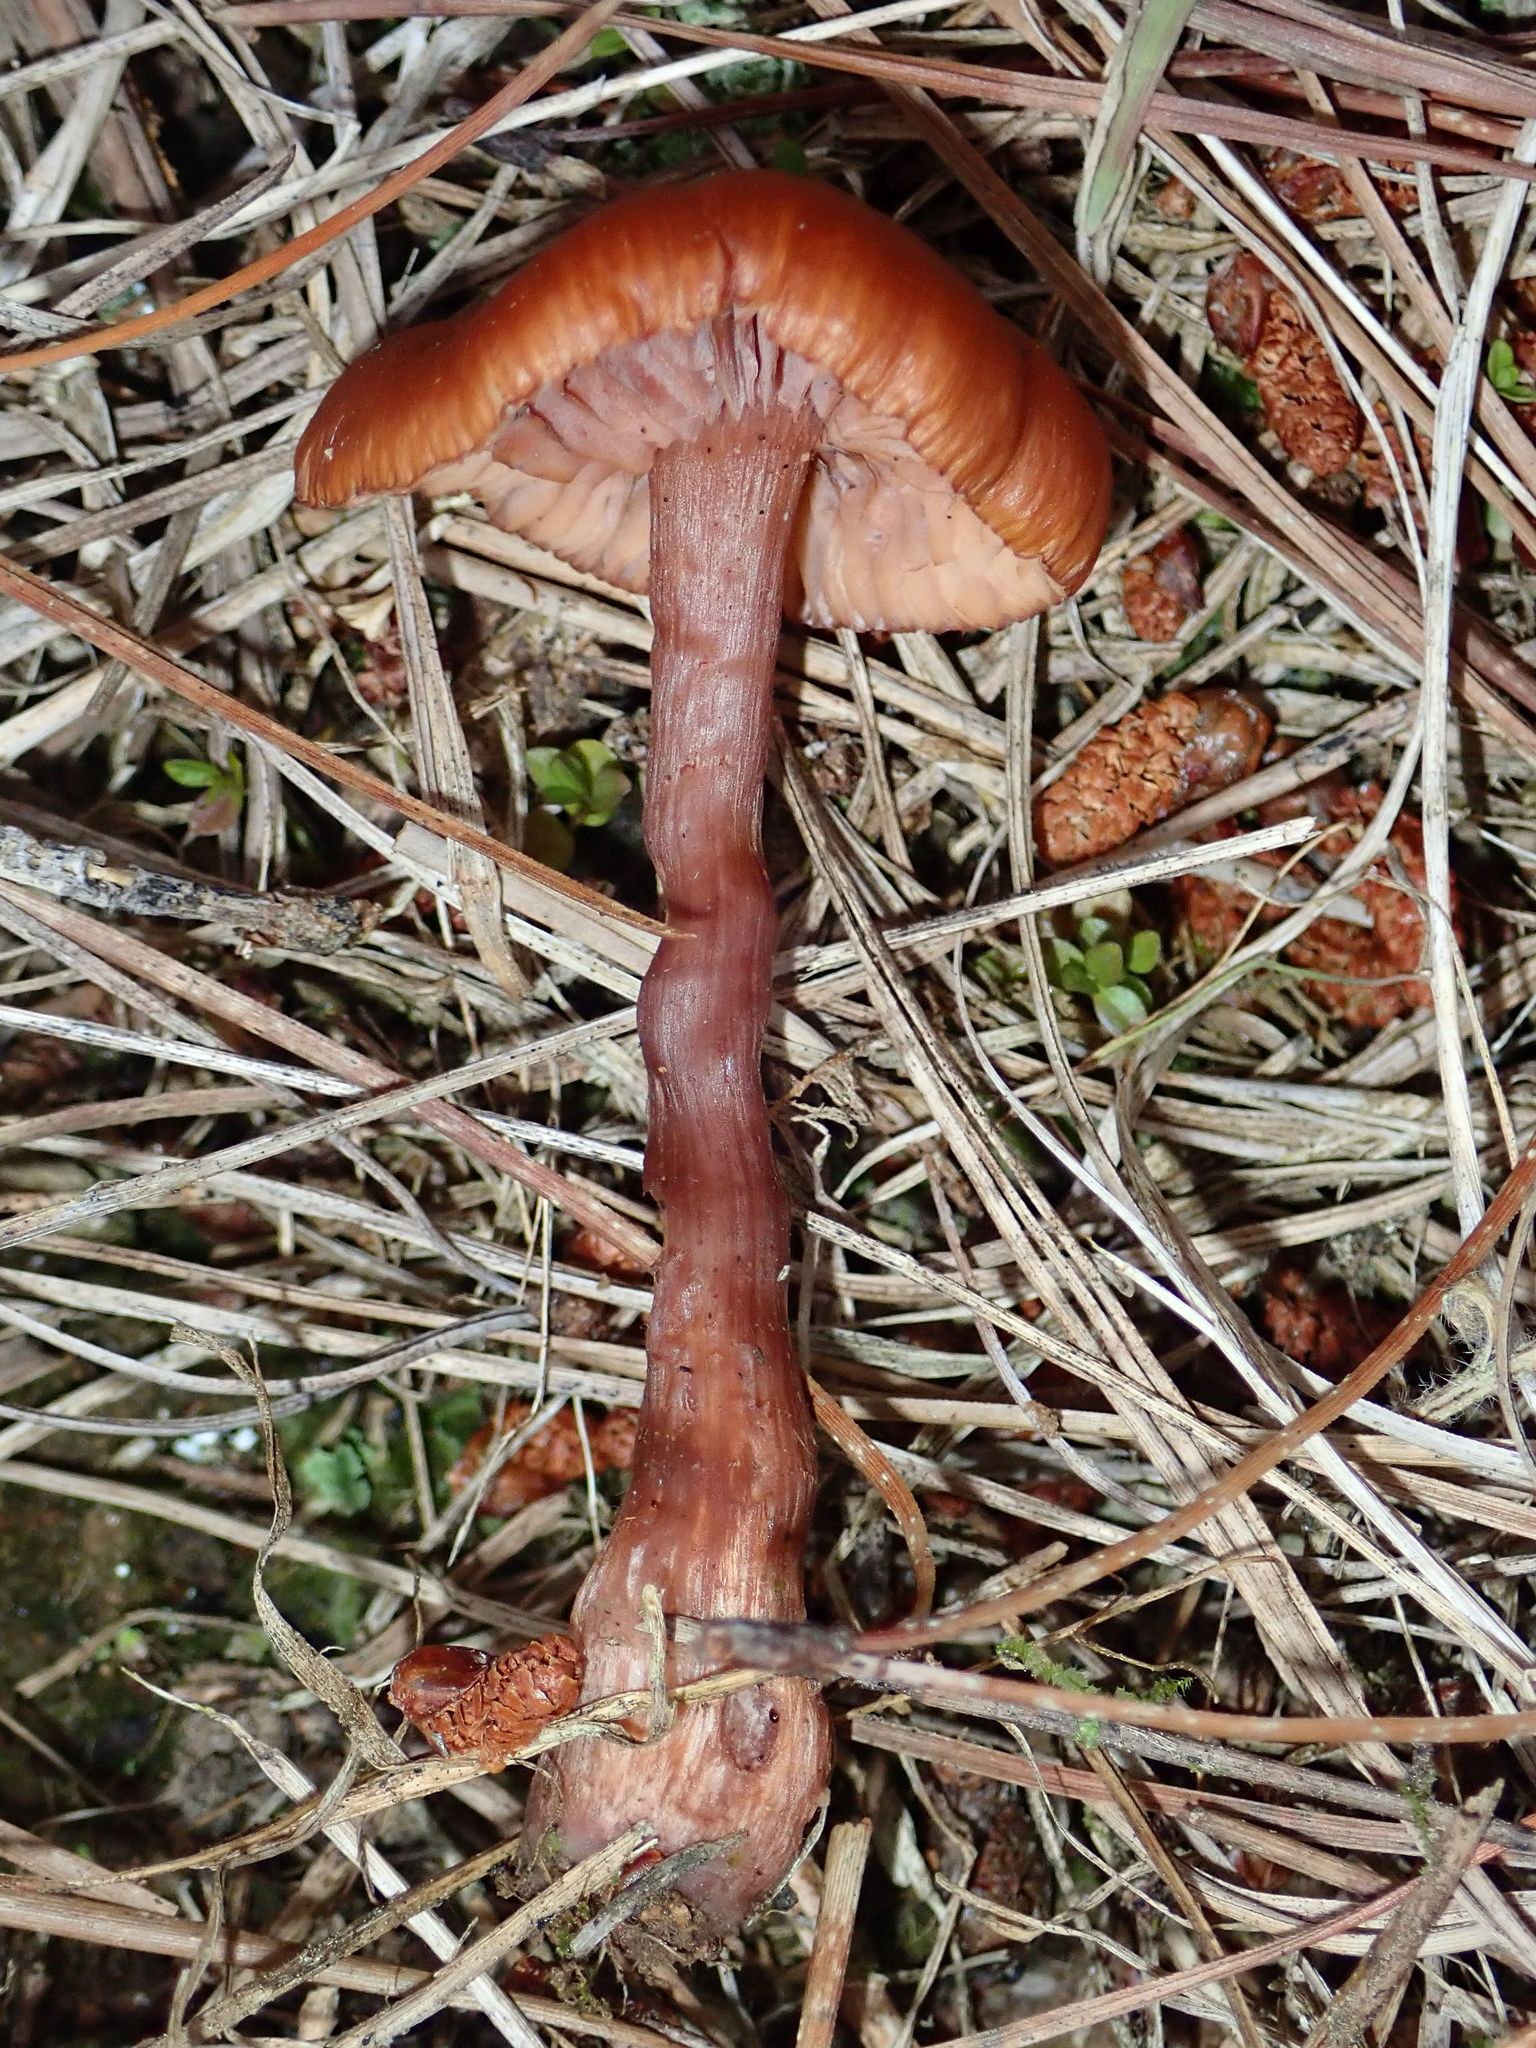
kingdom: Fungi
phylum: Basidiomycota
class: Agaricomycetes
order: Agaricales
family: Hydnangiaceae
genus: Laccaria
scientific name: Laccaria proxima
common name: Scurfy deceiver
